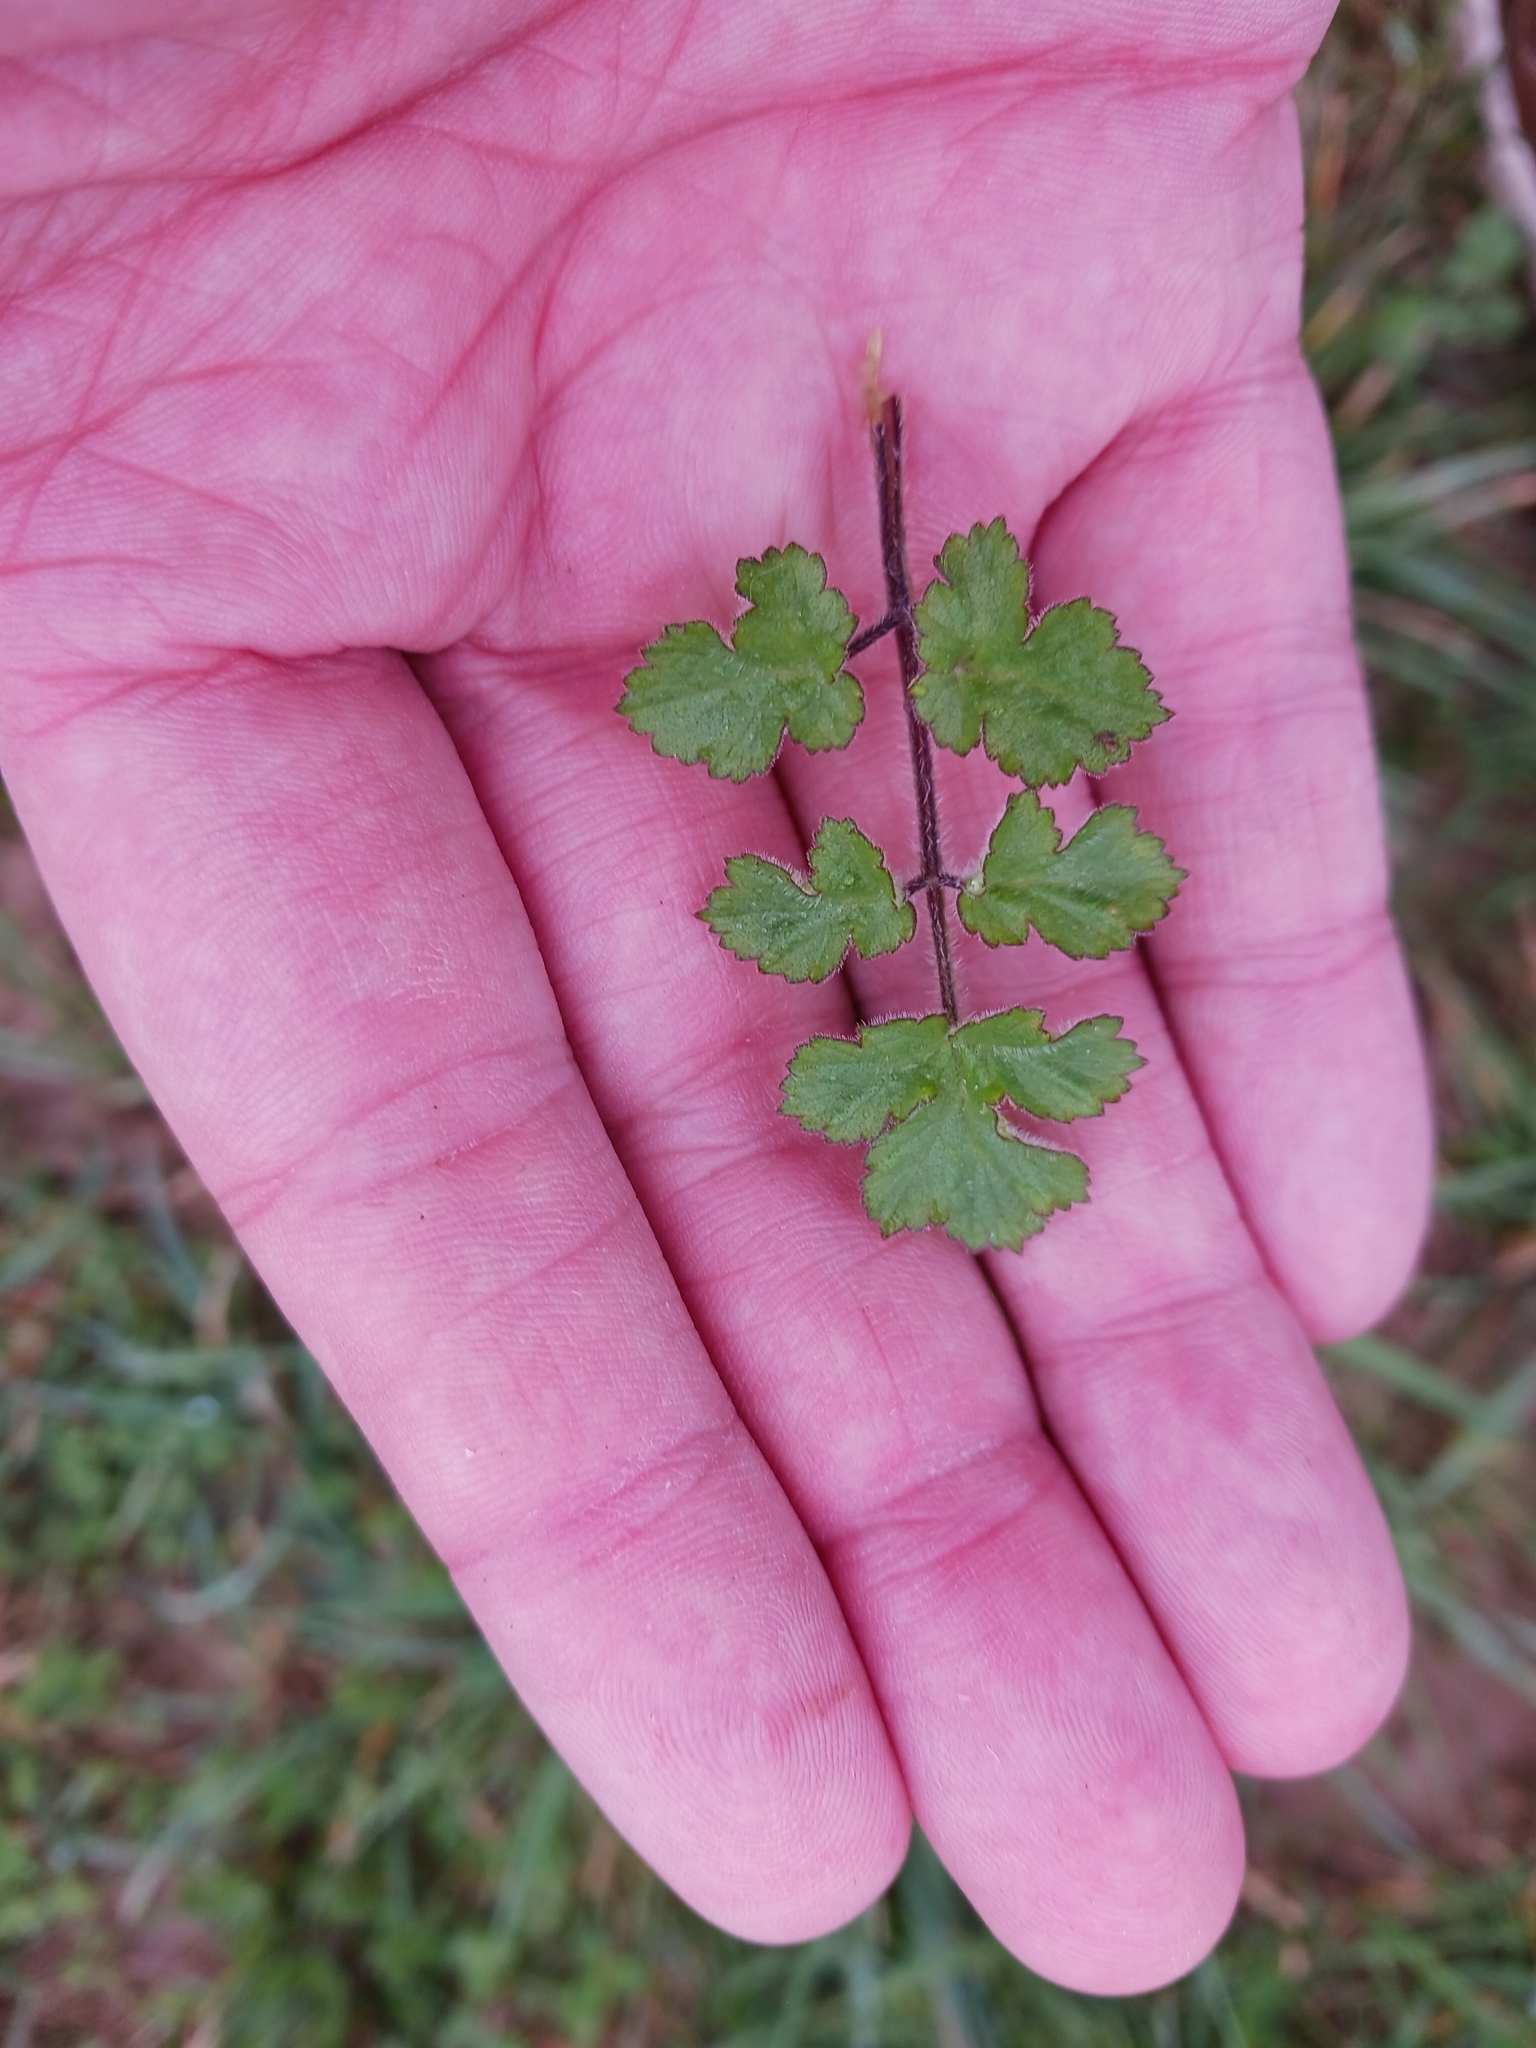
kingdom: Plantae
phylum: Tracheophyta
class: Magnoliopsida
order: Apiales
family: Apiaceae
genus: Heracleum
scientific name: Heracleum sphondylium
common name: Hogweed
